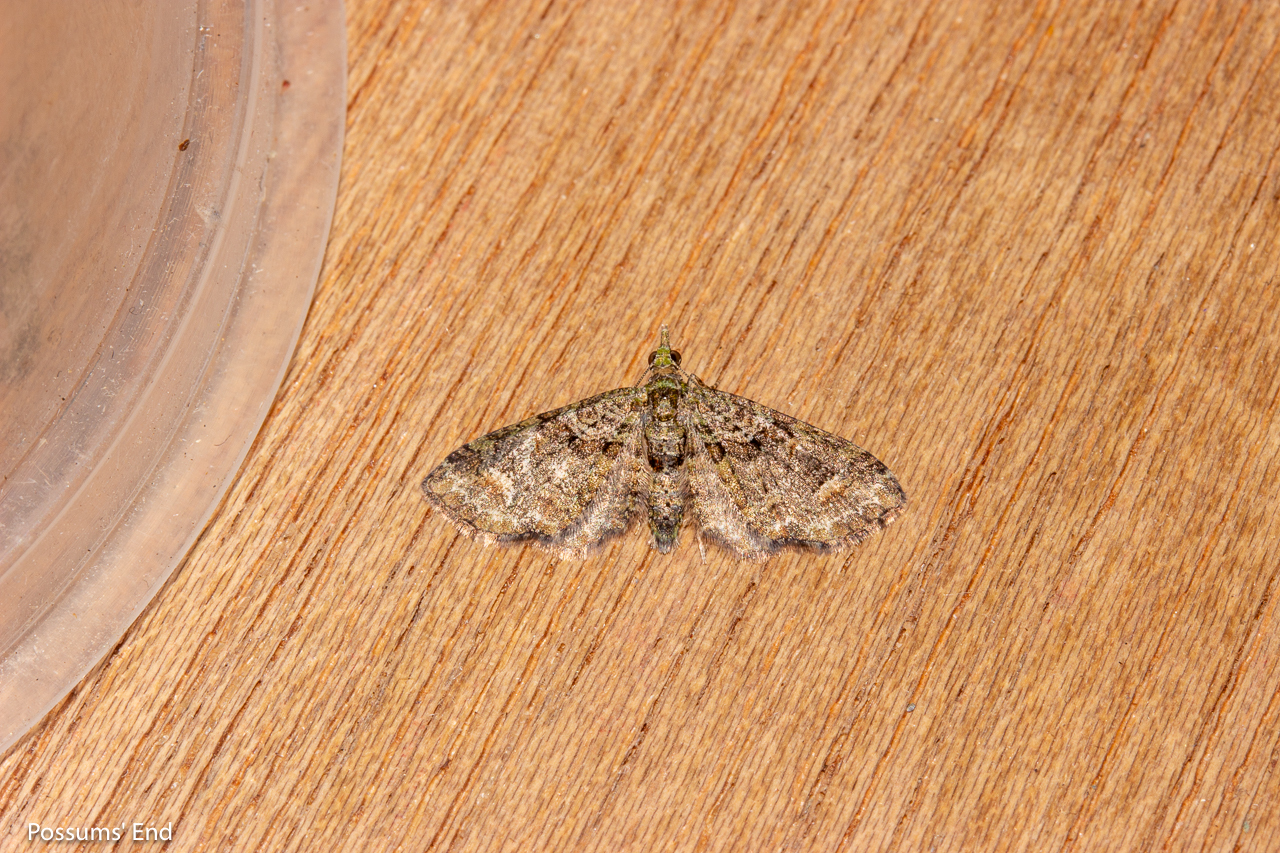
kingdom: Animalia
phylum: Arthropoda
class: Insecta
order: Lepidoptera
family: Geometridae
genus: Idaea
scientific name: Idaea mutanda
